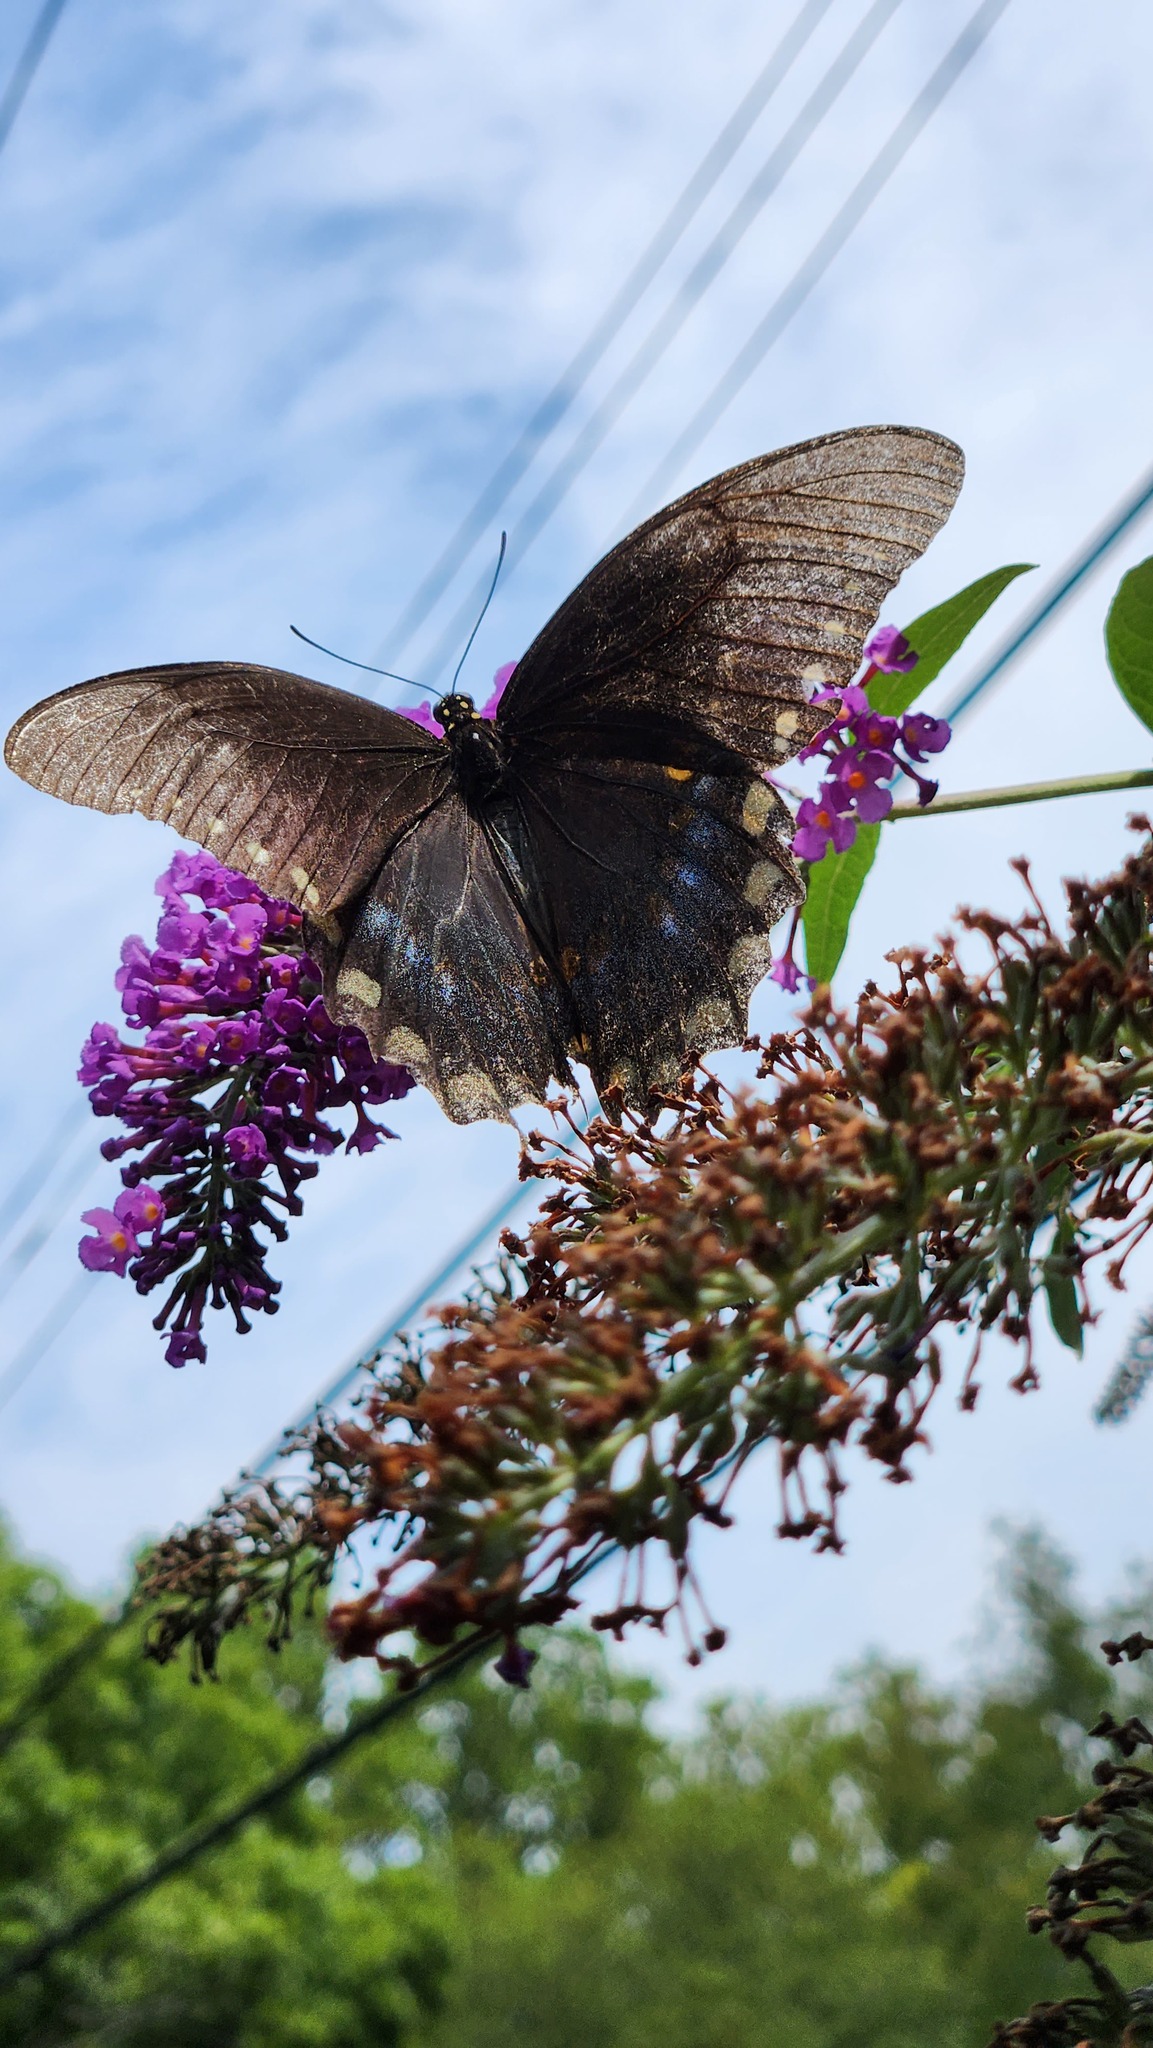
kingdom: Animalia
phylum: Arthropoda
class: Insecta
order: Lepidoptera
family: Papilionidae
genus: Papilio
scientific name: Papilio troilus
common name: Spicebush swallowtail
